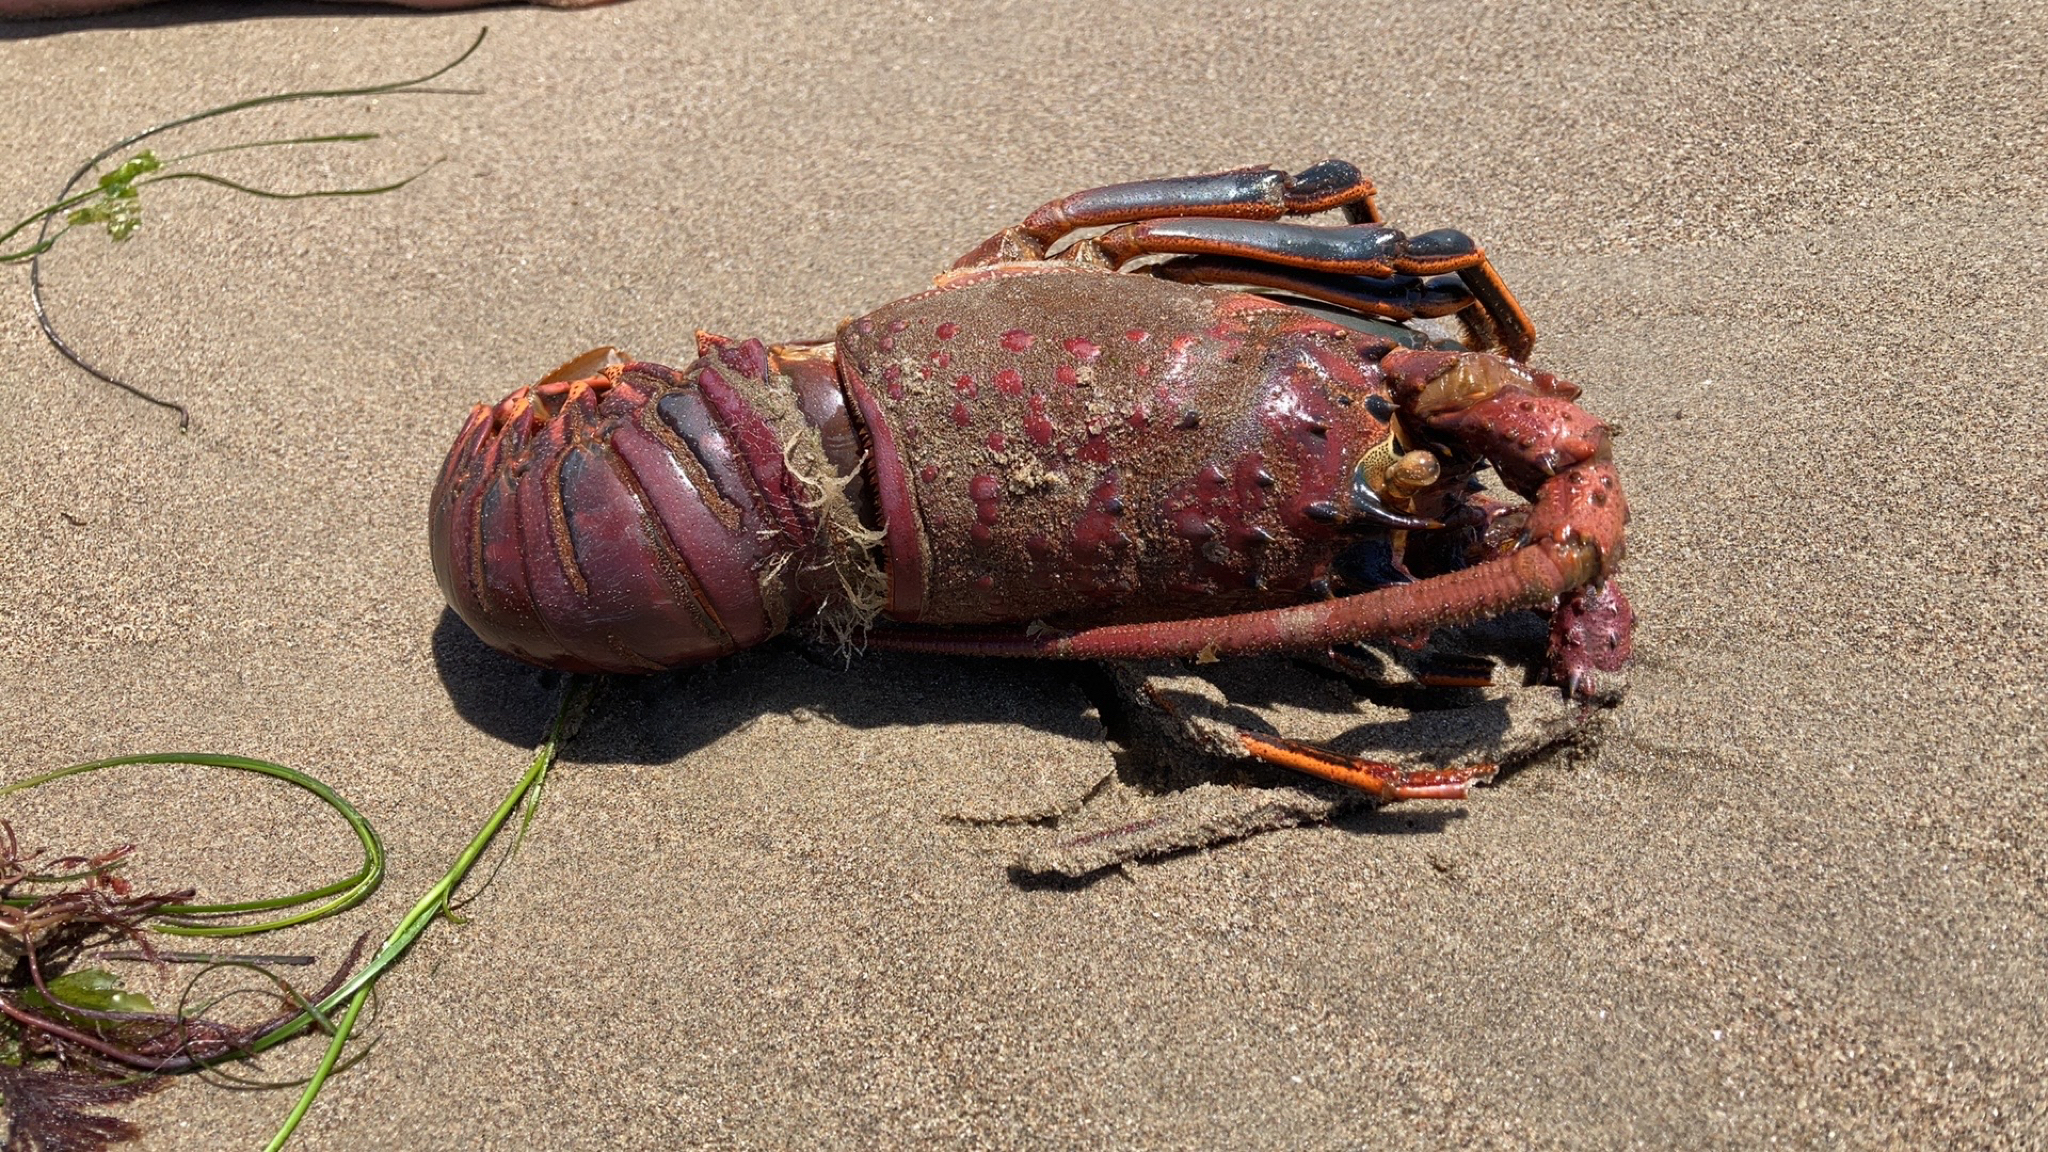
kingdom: Animalia
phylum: Arthropoda
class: Malacostraca
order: Decapoda
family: Palinuridae
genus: Panulirus
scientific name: Panulirus interruptus
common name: California spiny lobster
